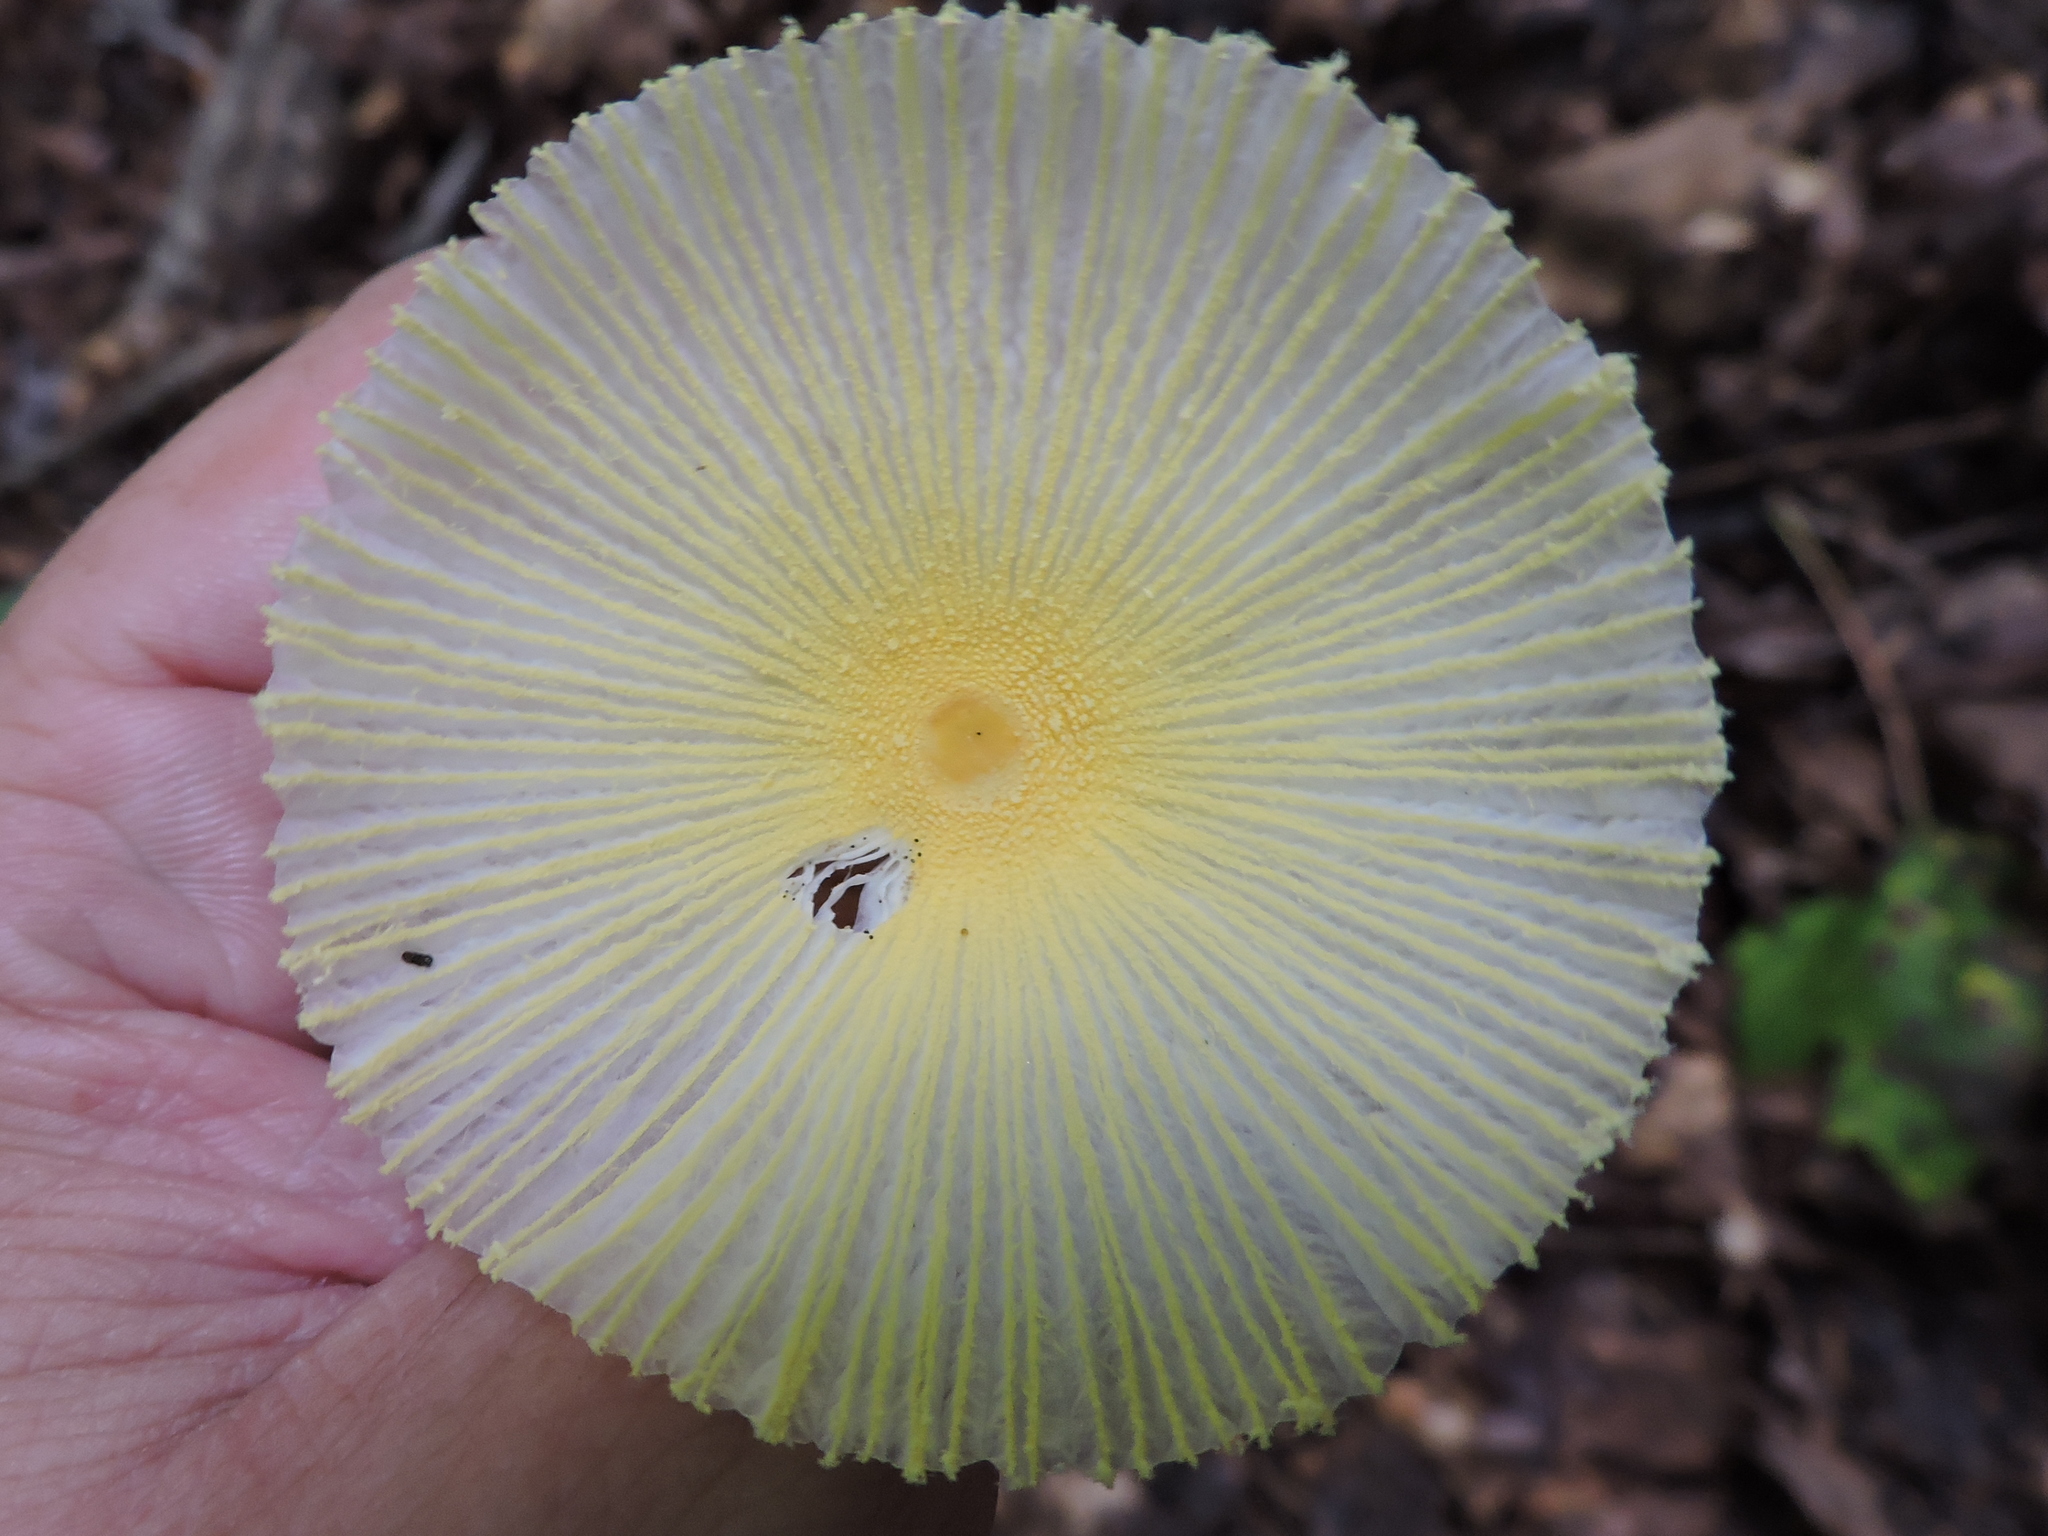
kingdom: Fungi
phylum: Basidiomycota
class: Agaricomycetes
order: Agaricales
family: Agaricaceae
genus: Leucocoprinus
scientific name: Leucocoprinus fragilissimus
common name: Fragile dapperling
